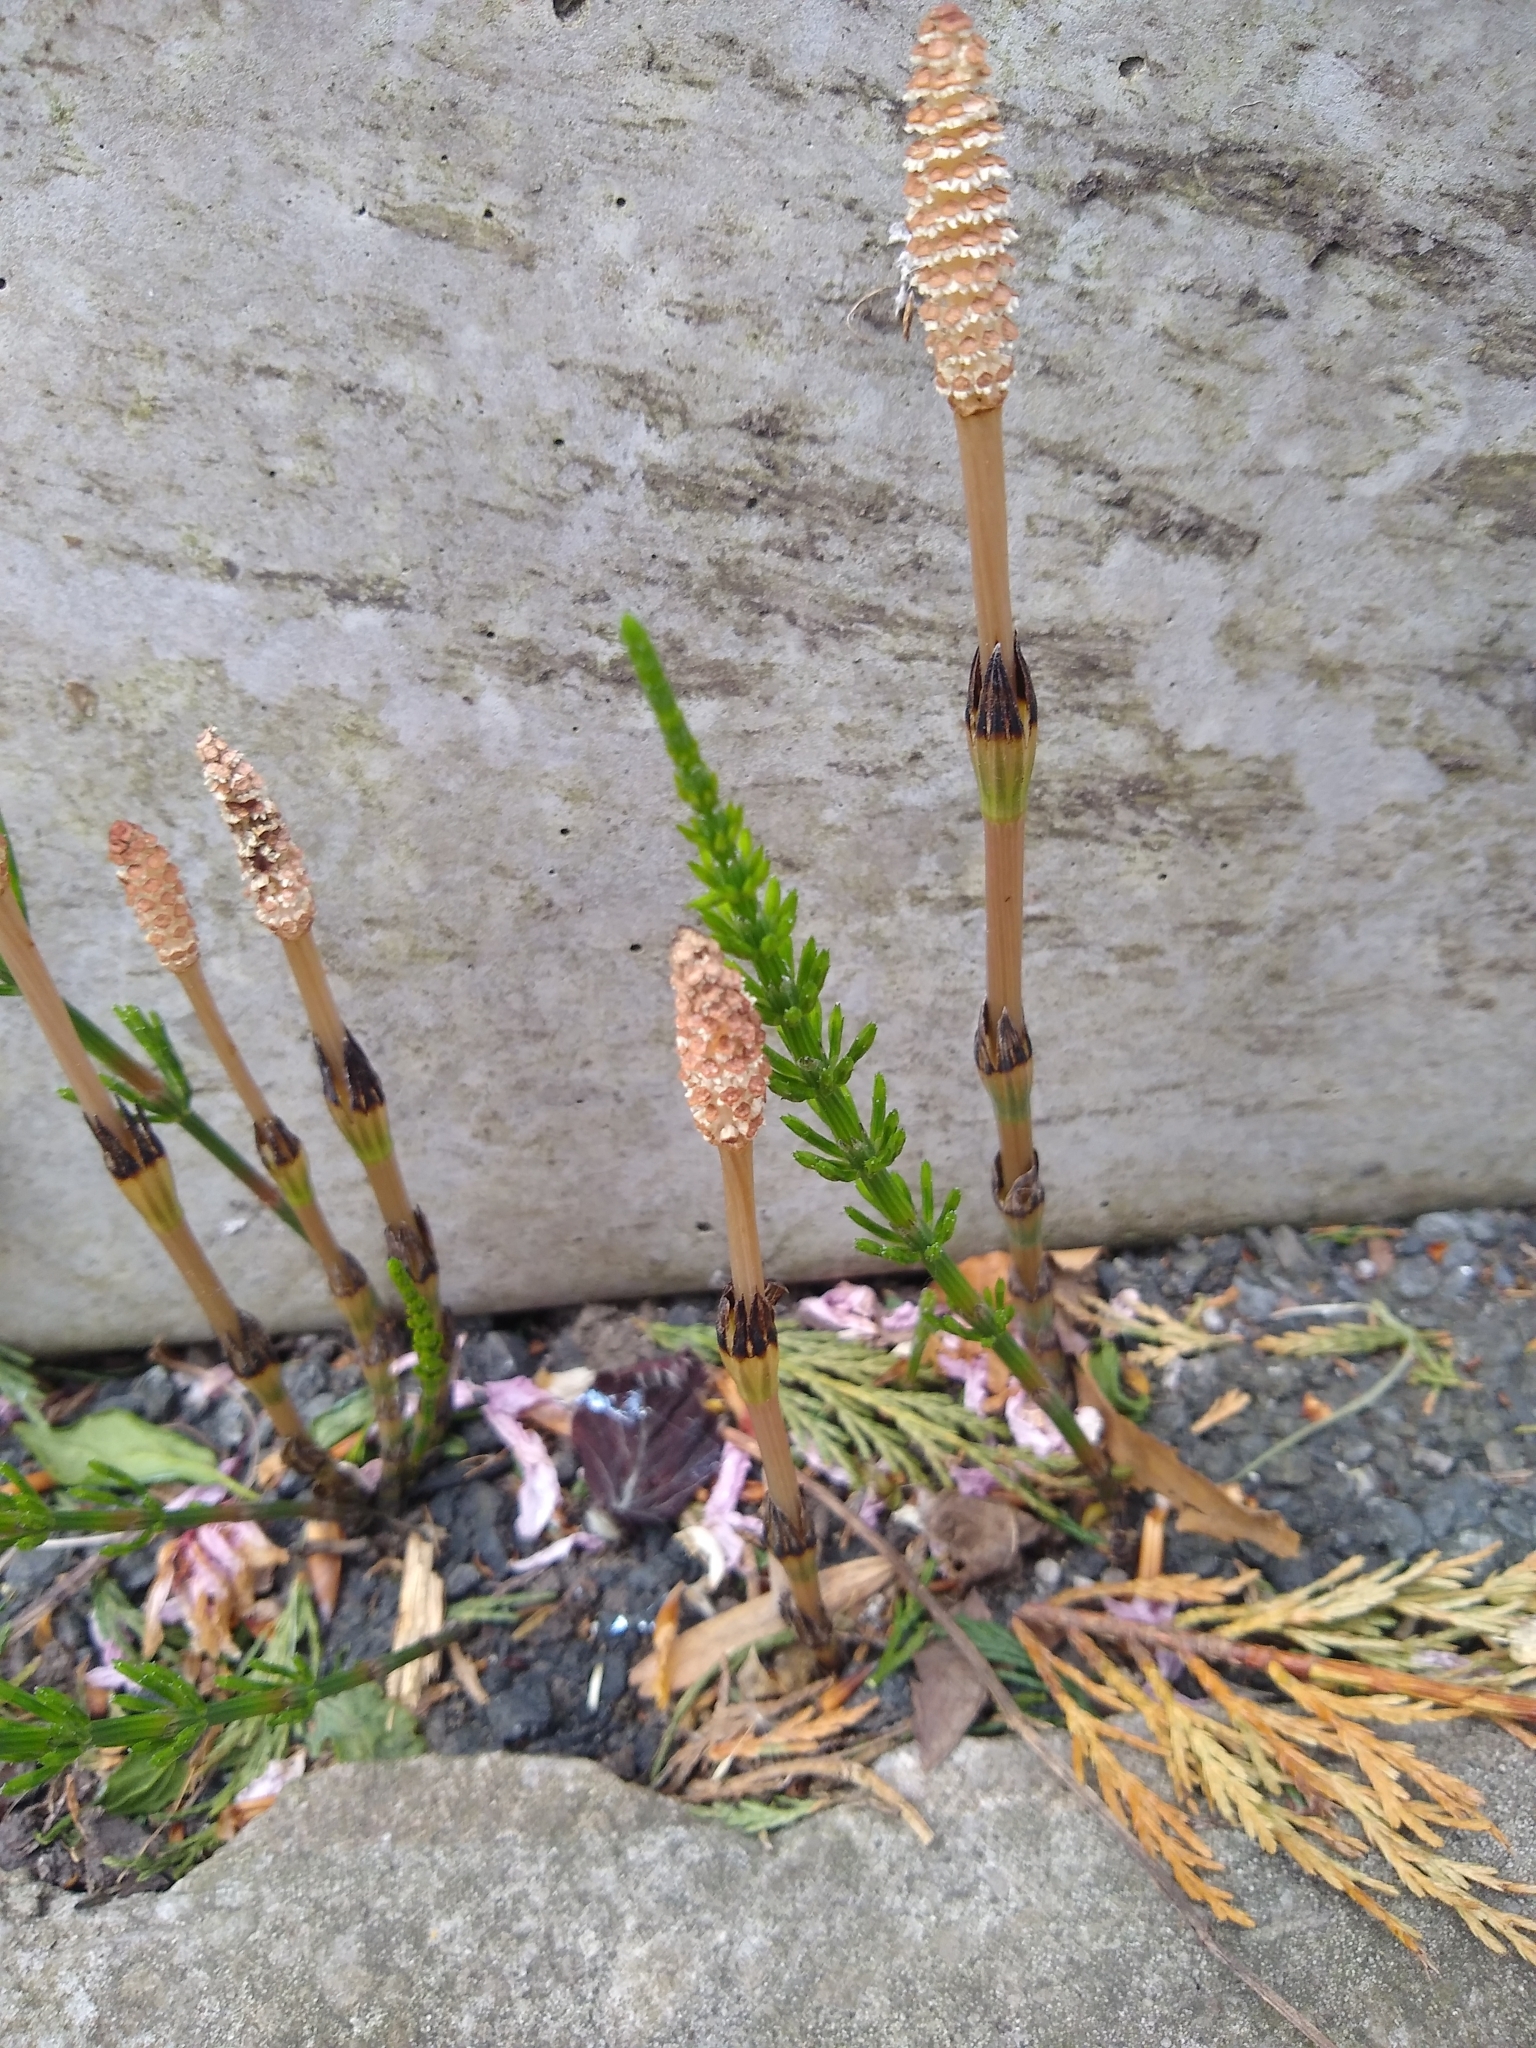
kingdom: Plantae
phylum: Tracheophyta
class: Polypodiopsida
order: Equisetales
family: Equisetaceae
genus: Equisetum
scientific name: Equisetum arvense
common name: Field horsetail
